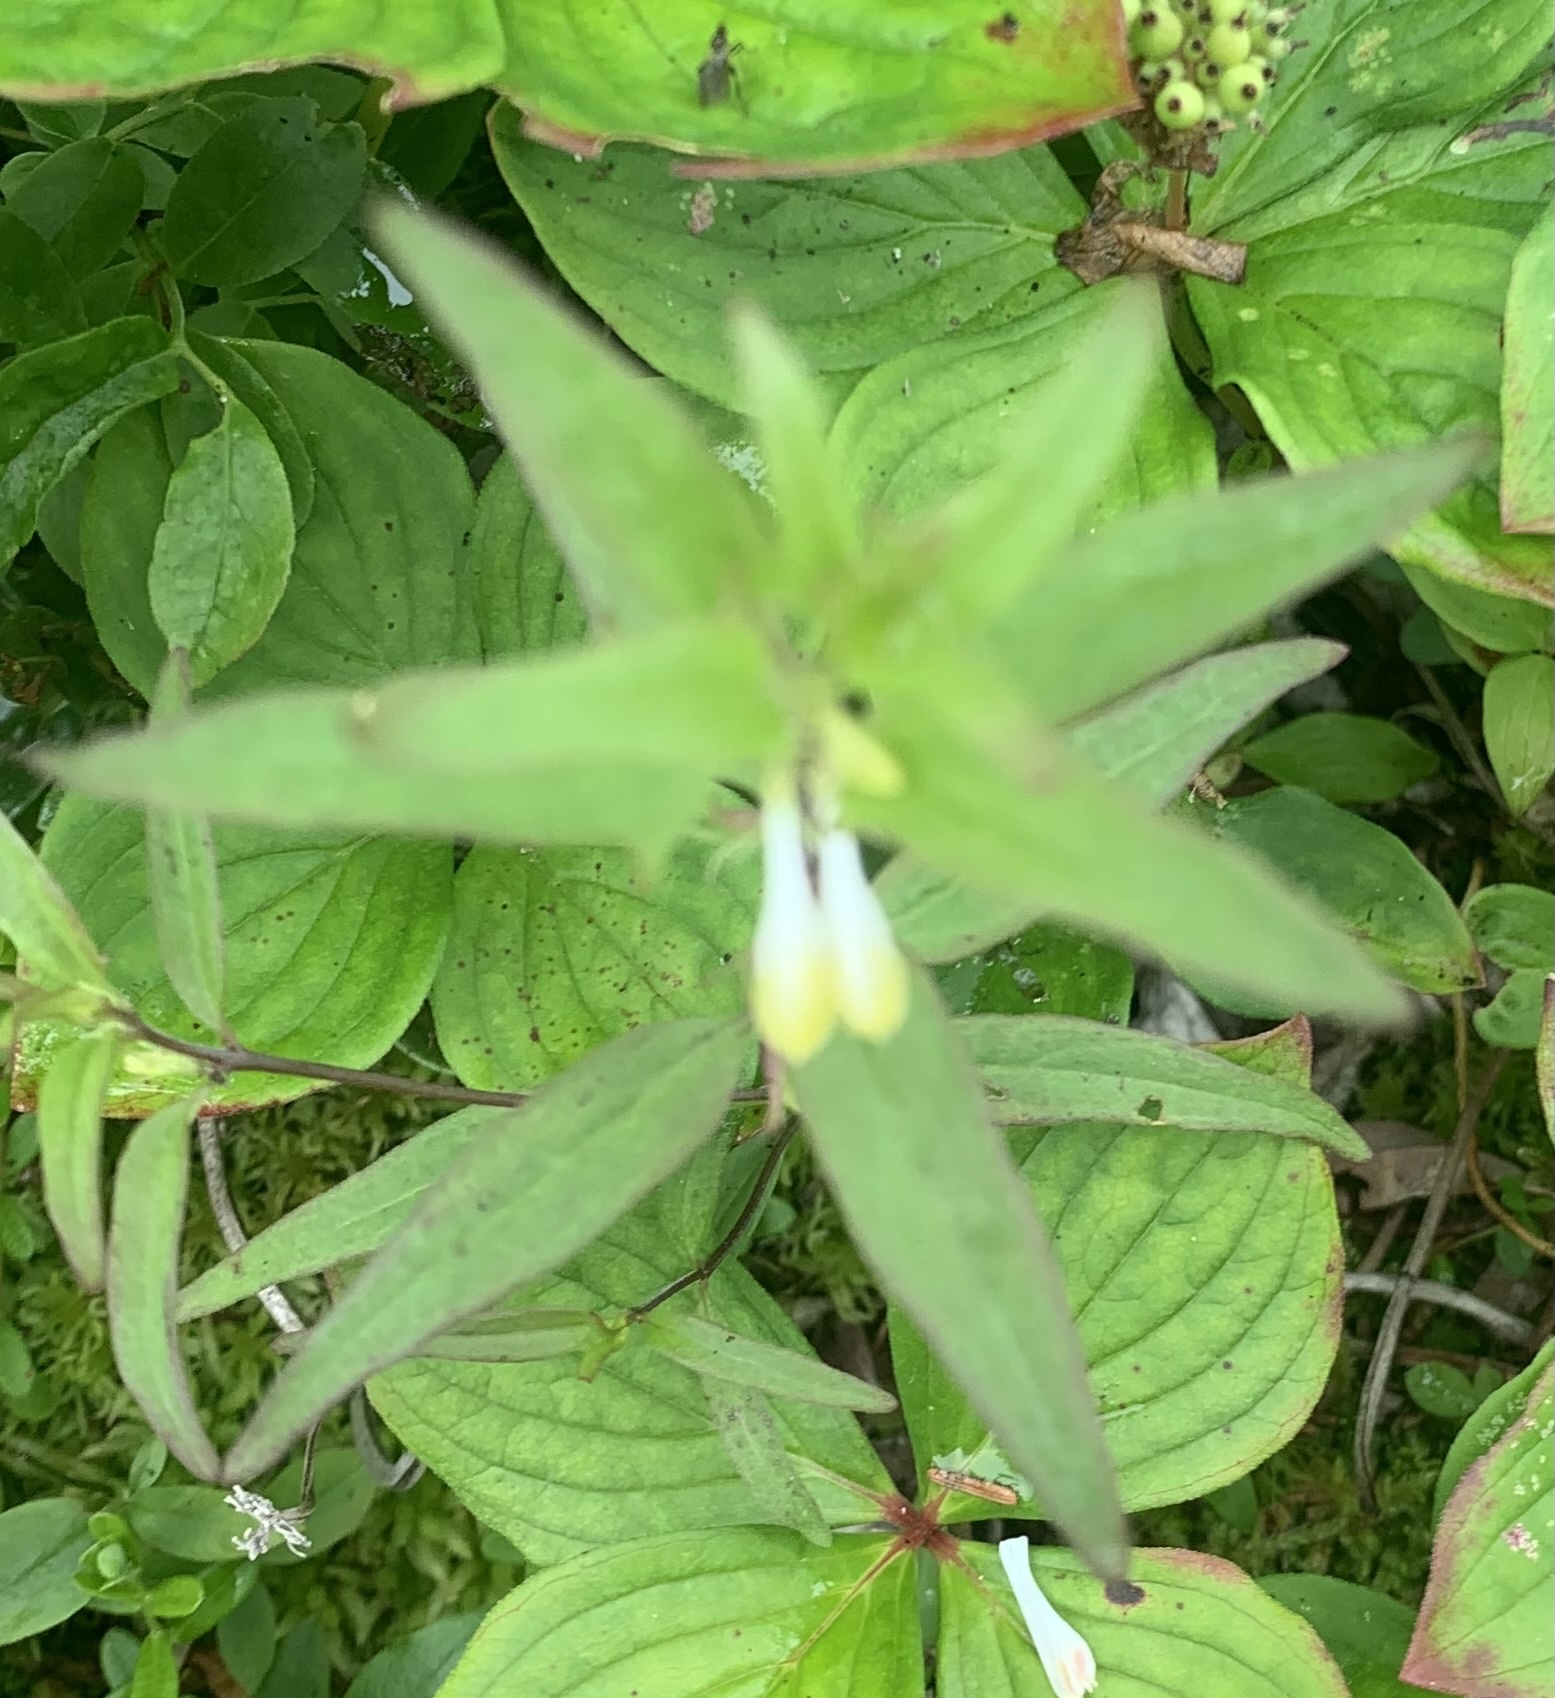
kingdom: Plantae
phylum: Tracheophyta
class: Magnoliopsida
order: Lamiales
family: Orobanchaceae
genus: Melampyrum
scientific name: Melampyrum lineare
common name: American cow-wheat
